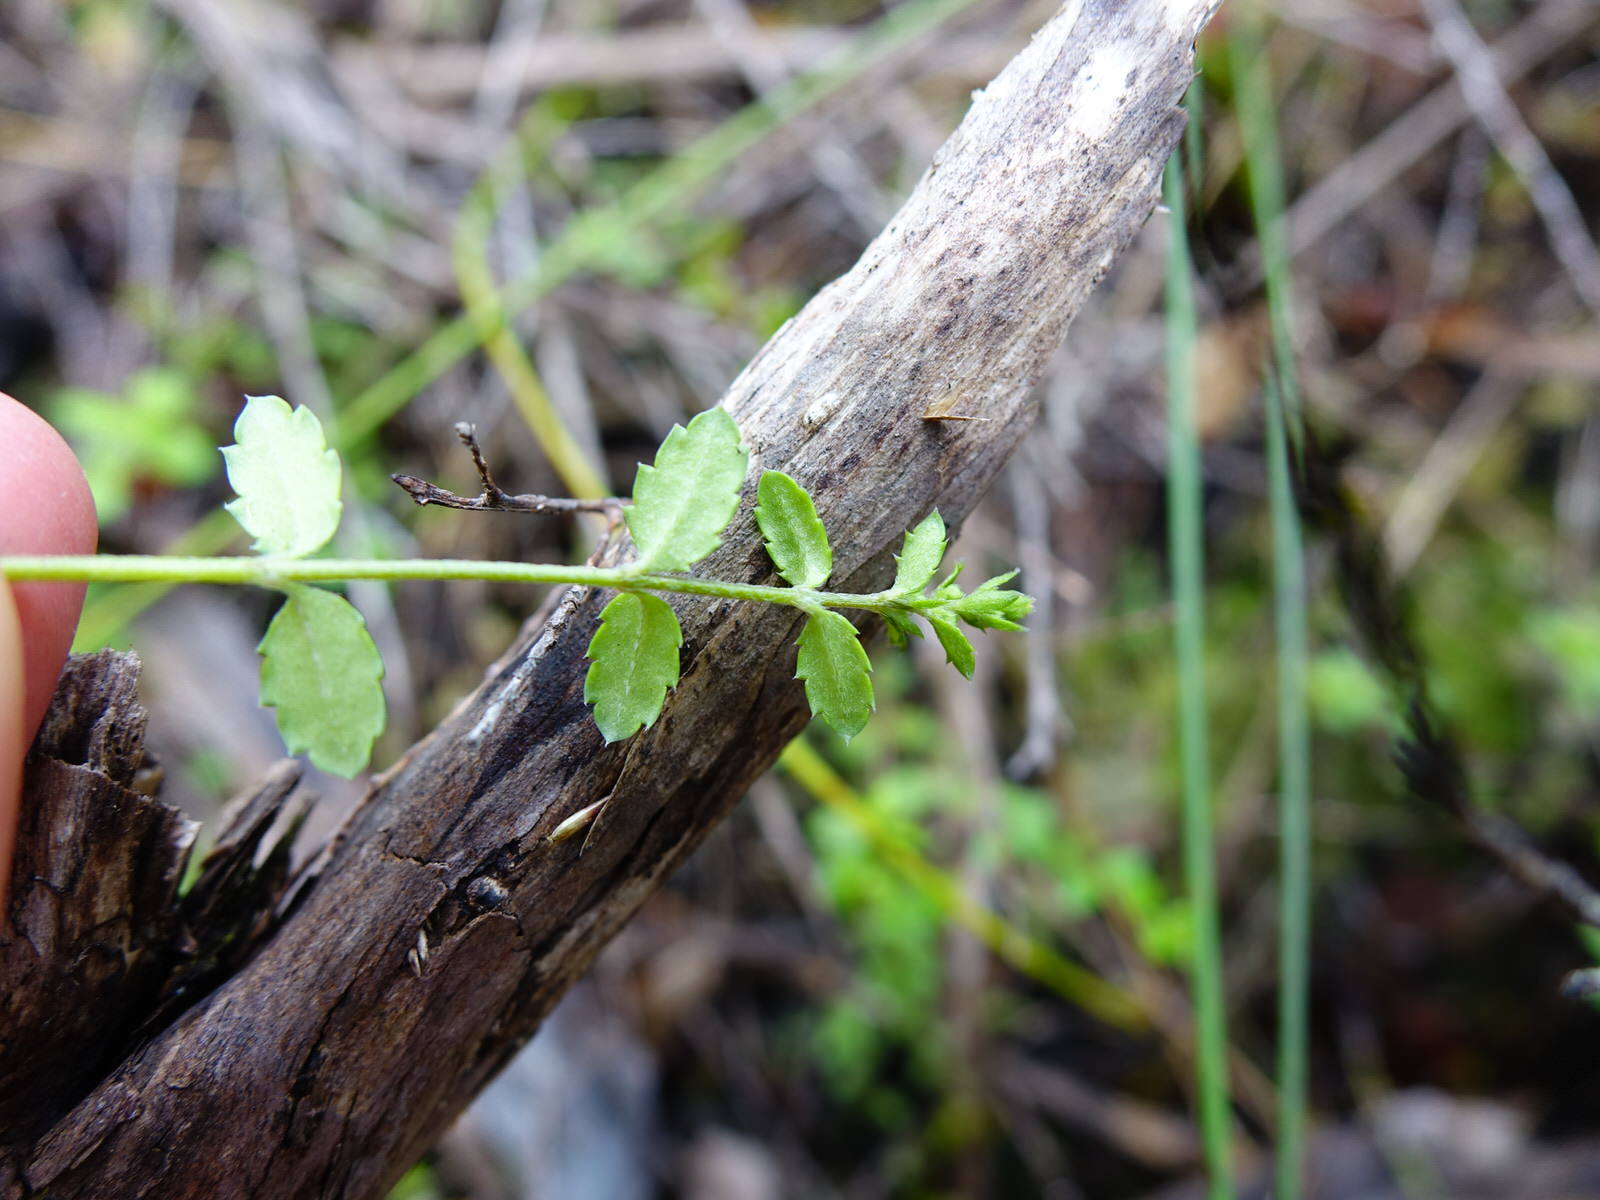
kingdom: Plantae
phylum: Tracheophyta
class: Magnoliopsida
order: Saxifragales
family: Haloragaceae
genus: Gonocarpus
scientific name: Gonocarpus incanus
